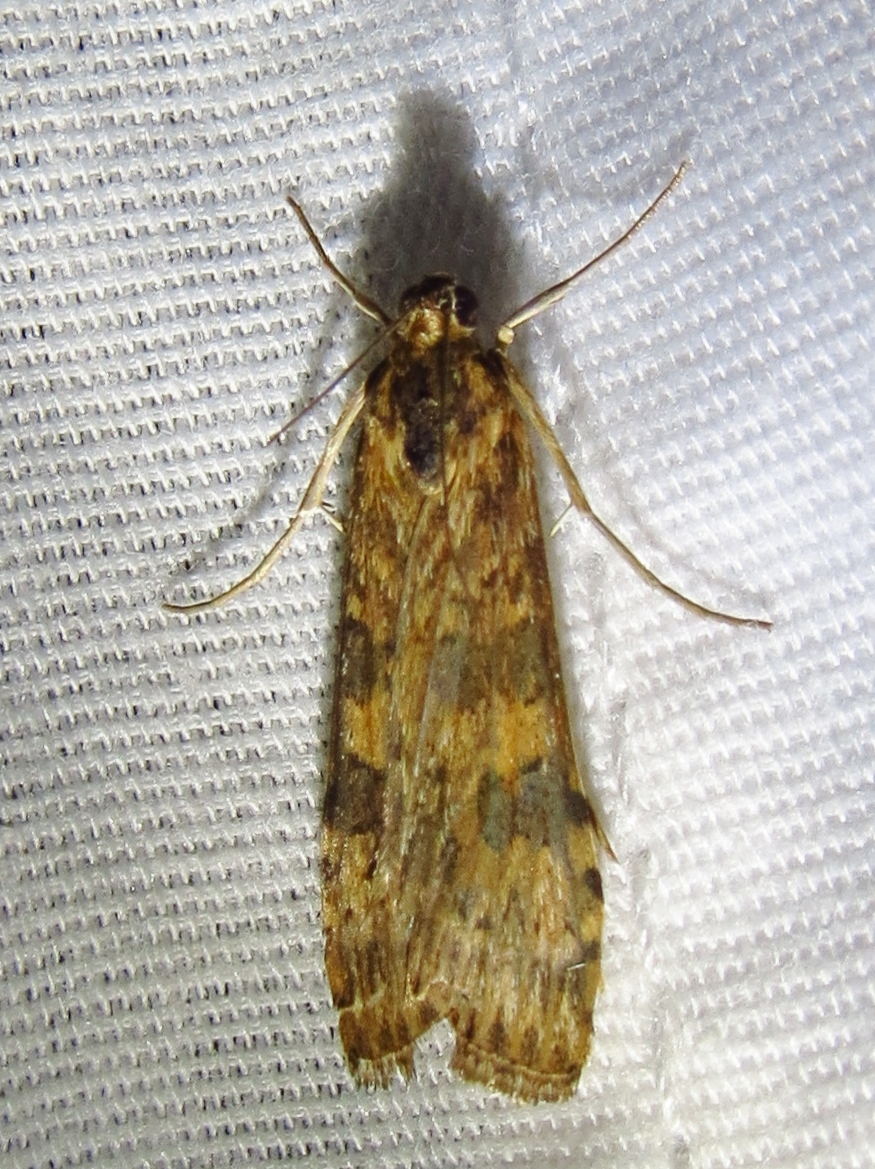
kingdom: Animalia
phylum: Arthropoda
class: Insecta
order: Lepidoptera
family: Crambidae
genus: Nomophila
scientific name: Nomophila nearctica
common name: American rush veneer
